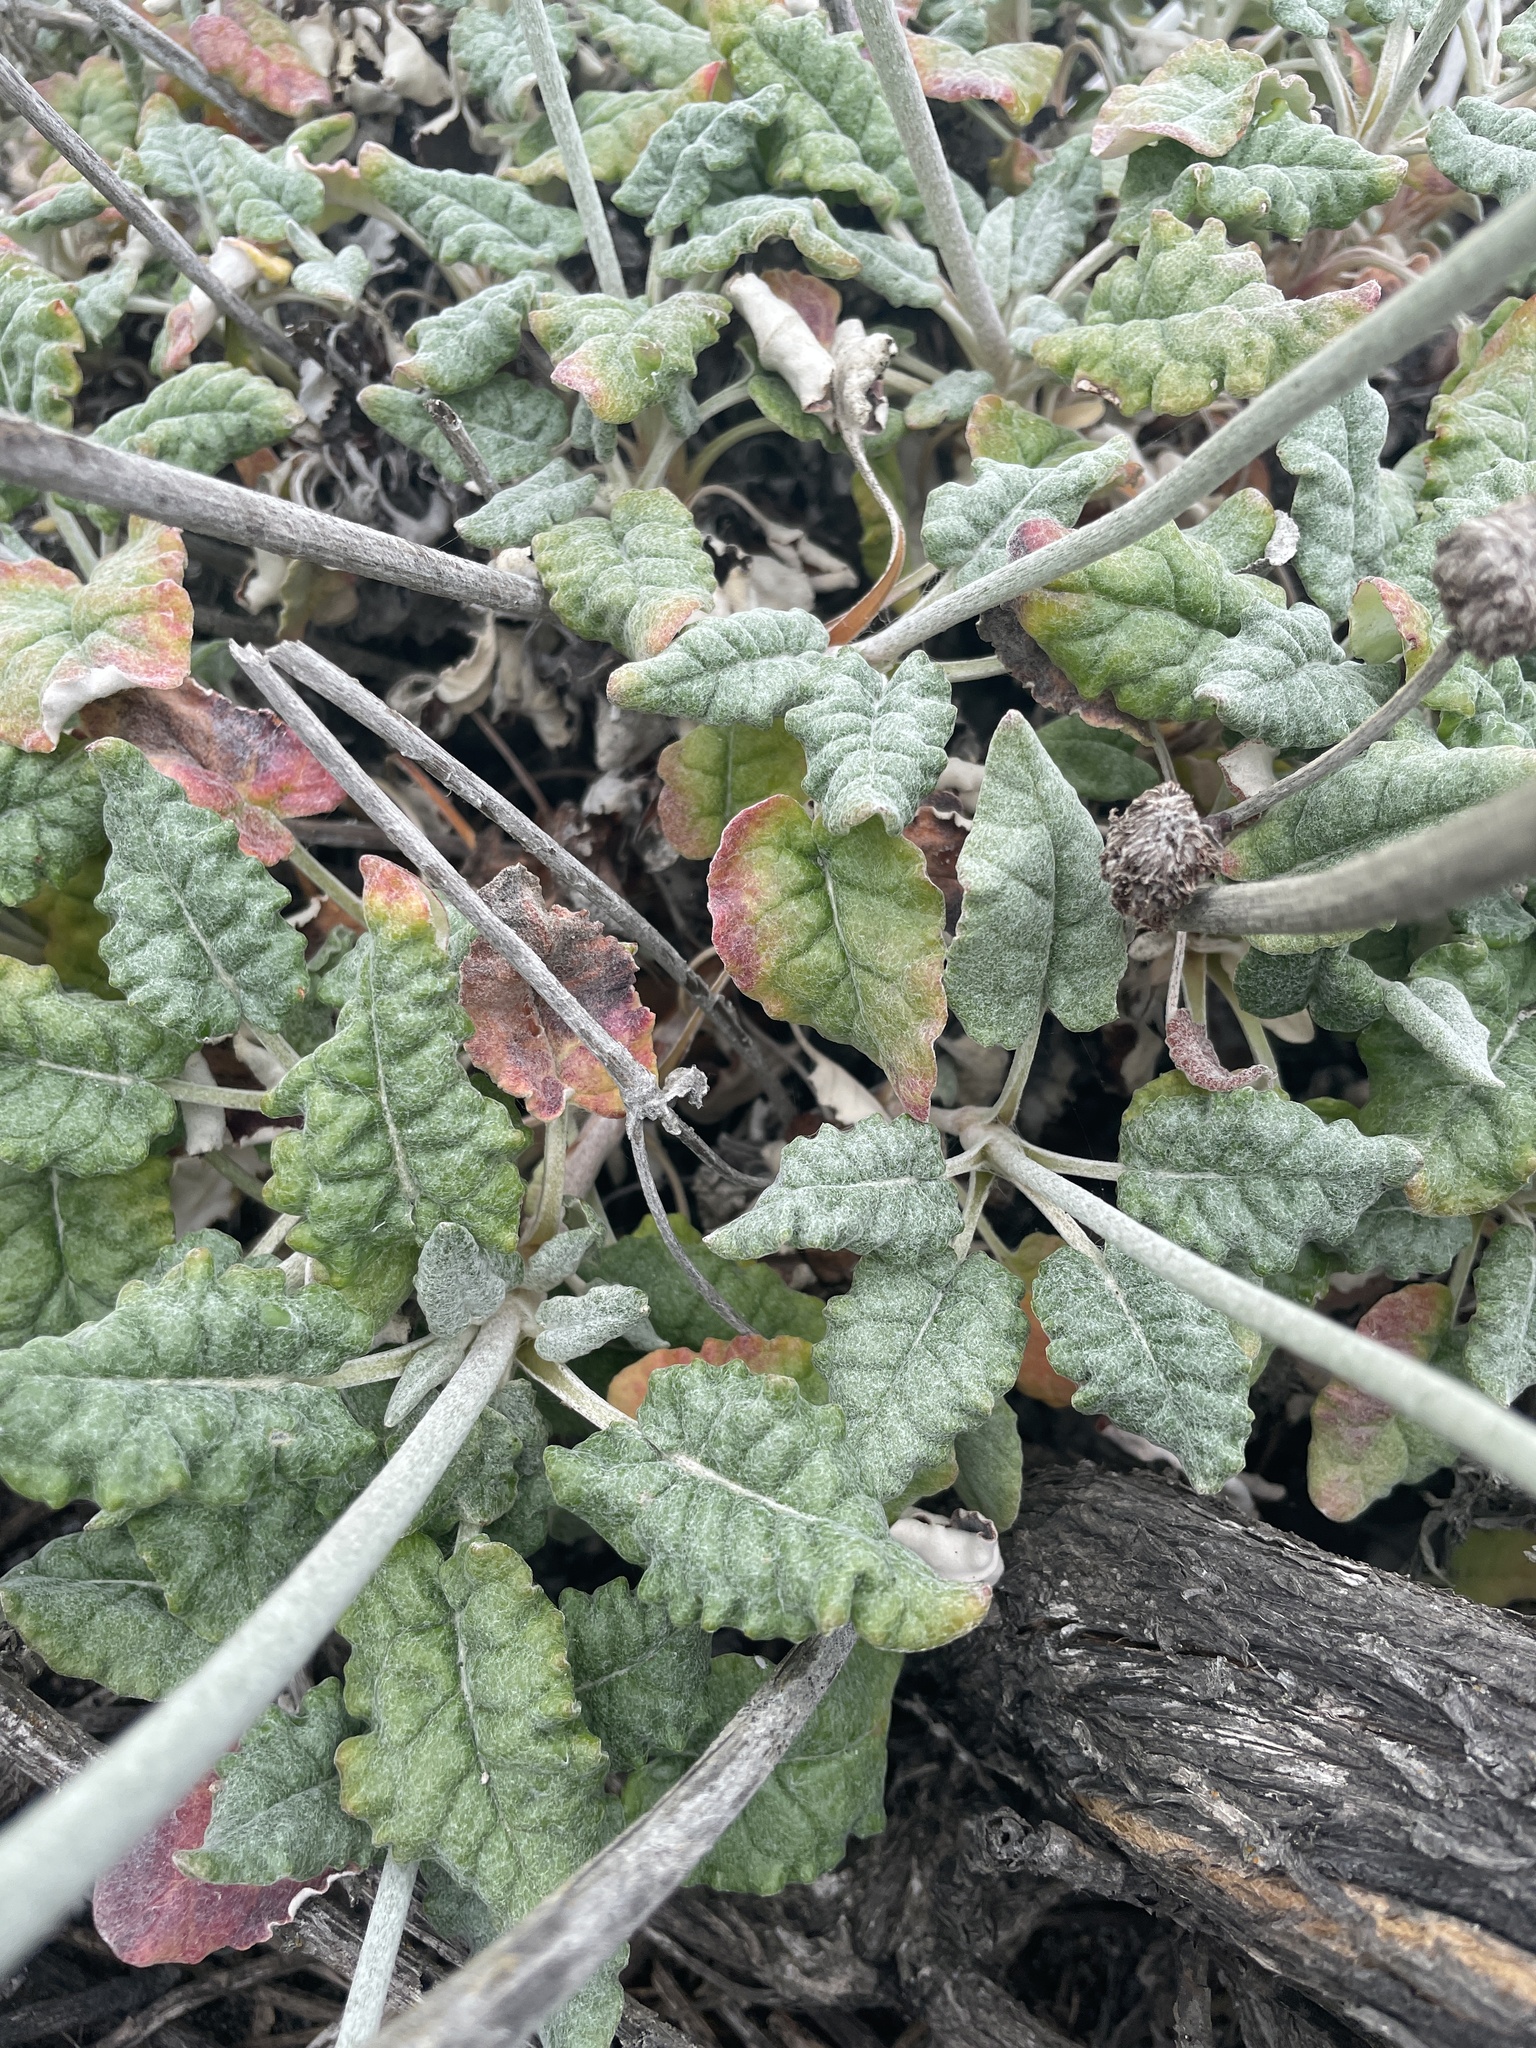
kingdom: Plantae
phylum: Tracheophyta
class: Magnoliopsida
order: Caryophyllales
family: Polygonaceae
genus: Eriogonum
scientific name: Eriogonum latifolium
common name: Seaside wild buckwheat
